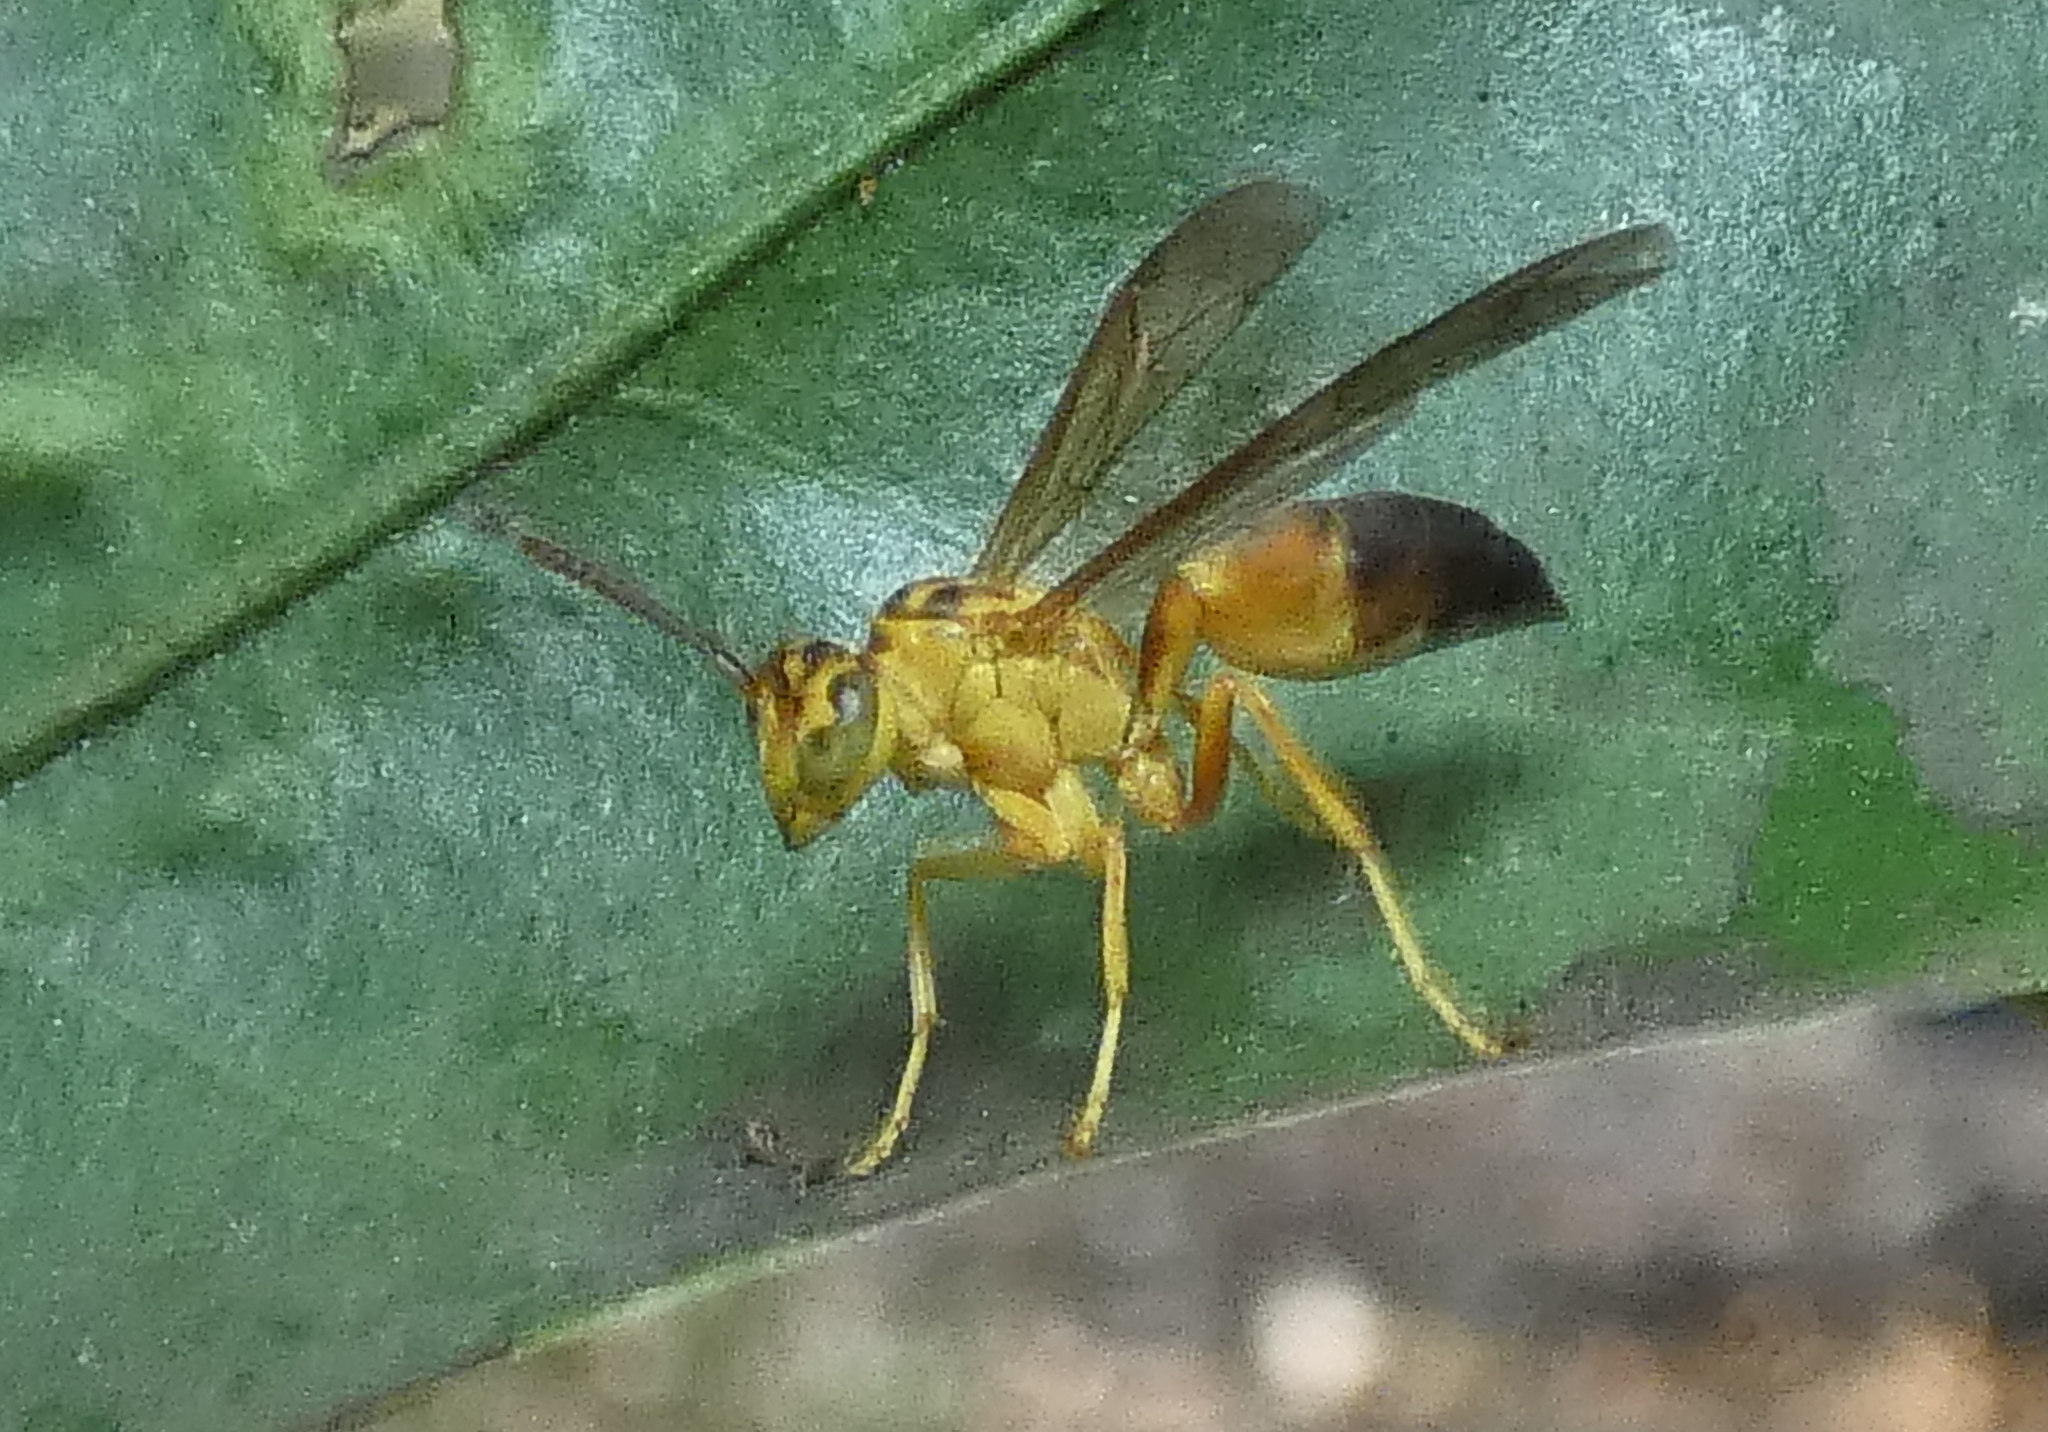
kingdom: Animalia
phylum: Arthropoda
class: Insecta
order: Hymenoptera
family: Vespidae
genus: Agelaia
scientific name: Agelaia pallipes
